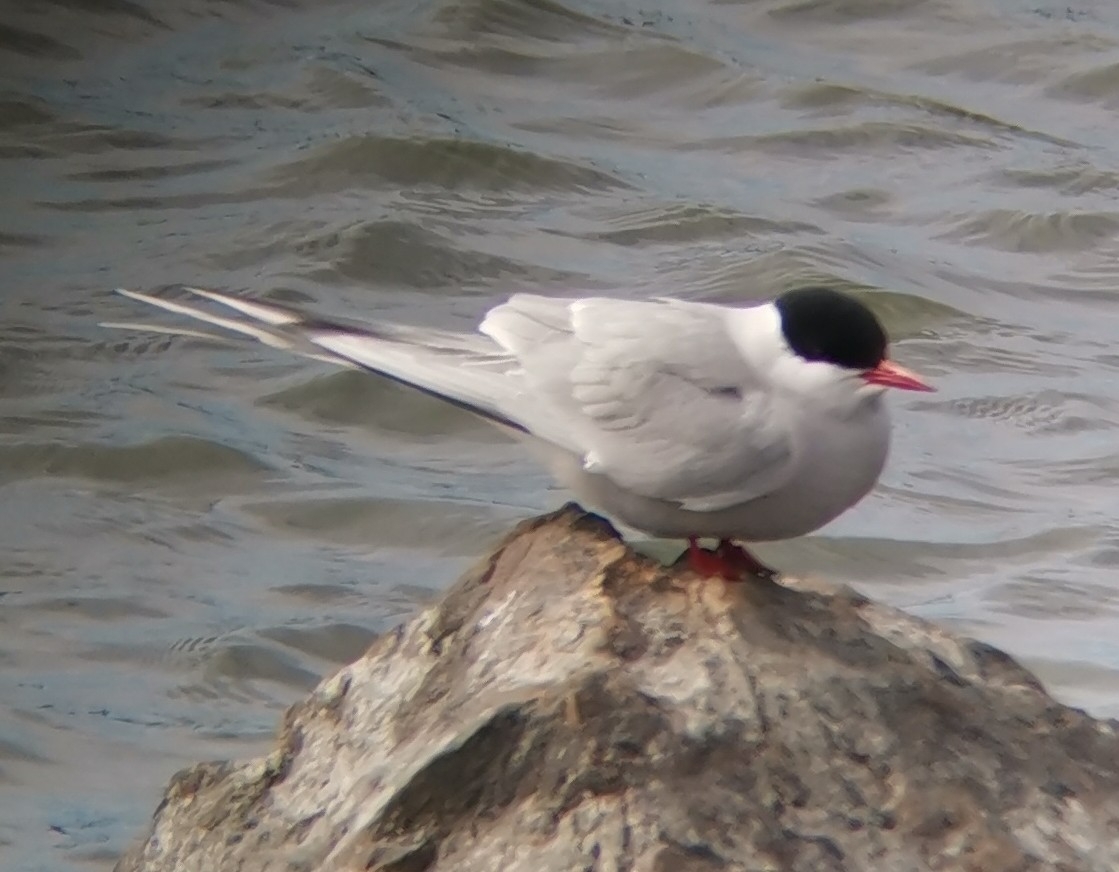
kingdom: Animalia
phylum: Chordata
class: Aves
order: Charadriiformes
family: Laridae
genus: Sterna
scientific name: Sterna paradisaea
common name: Arctic tern
